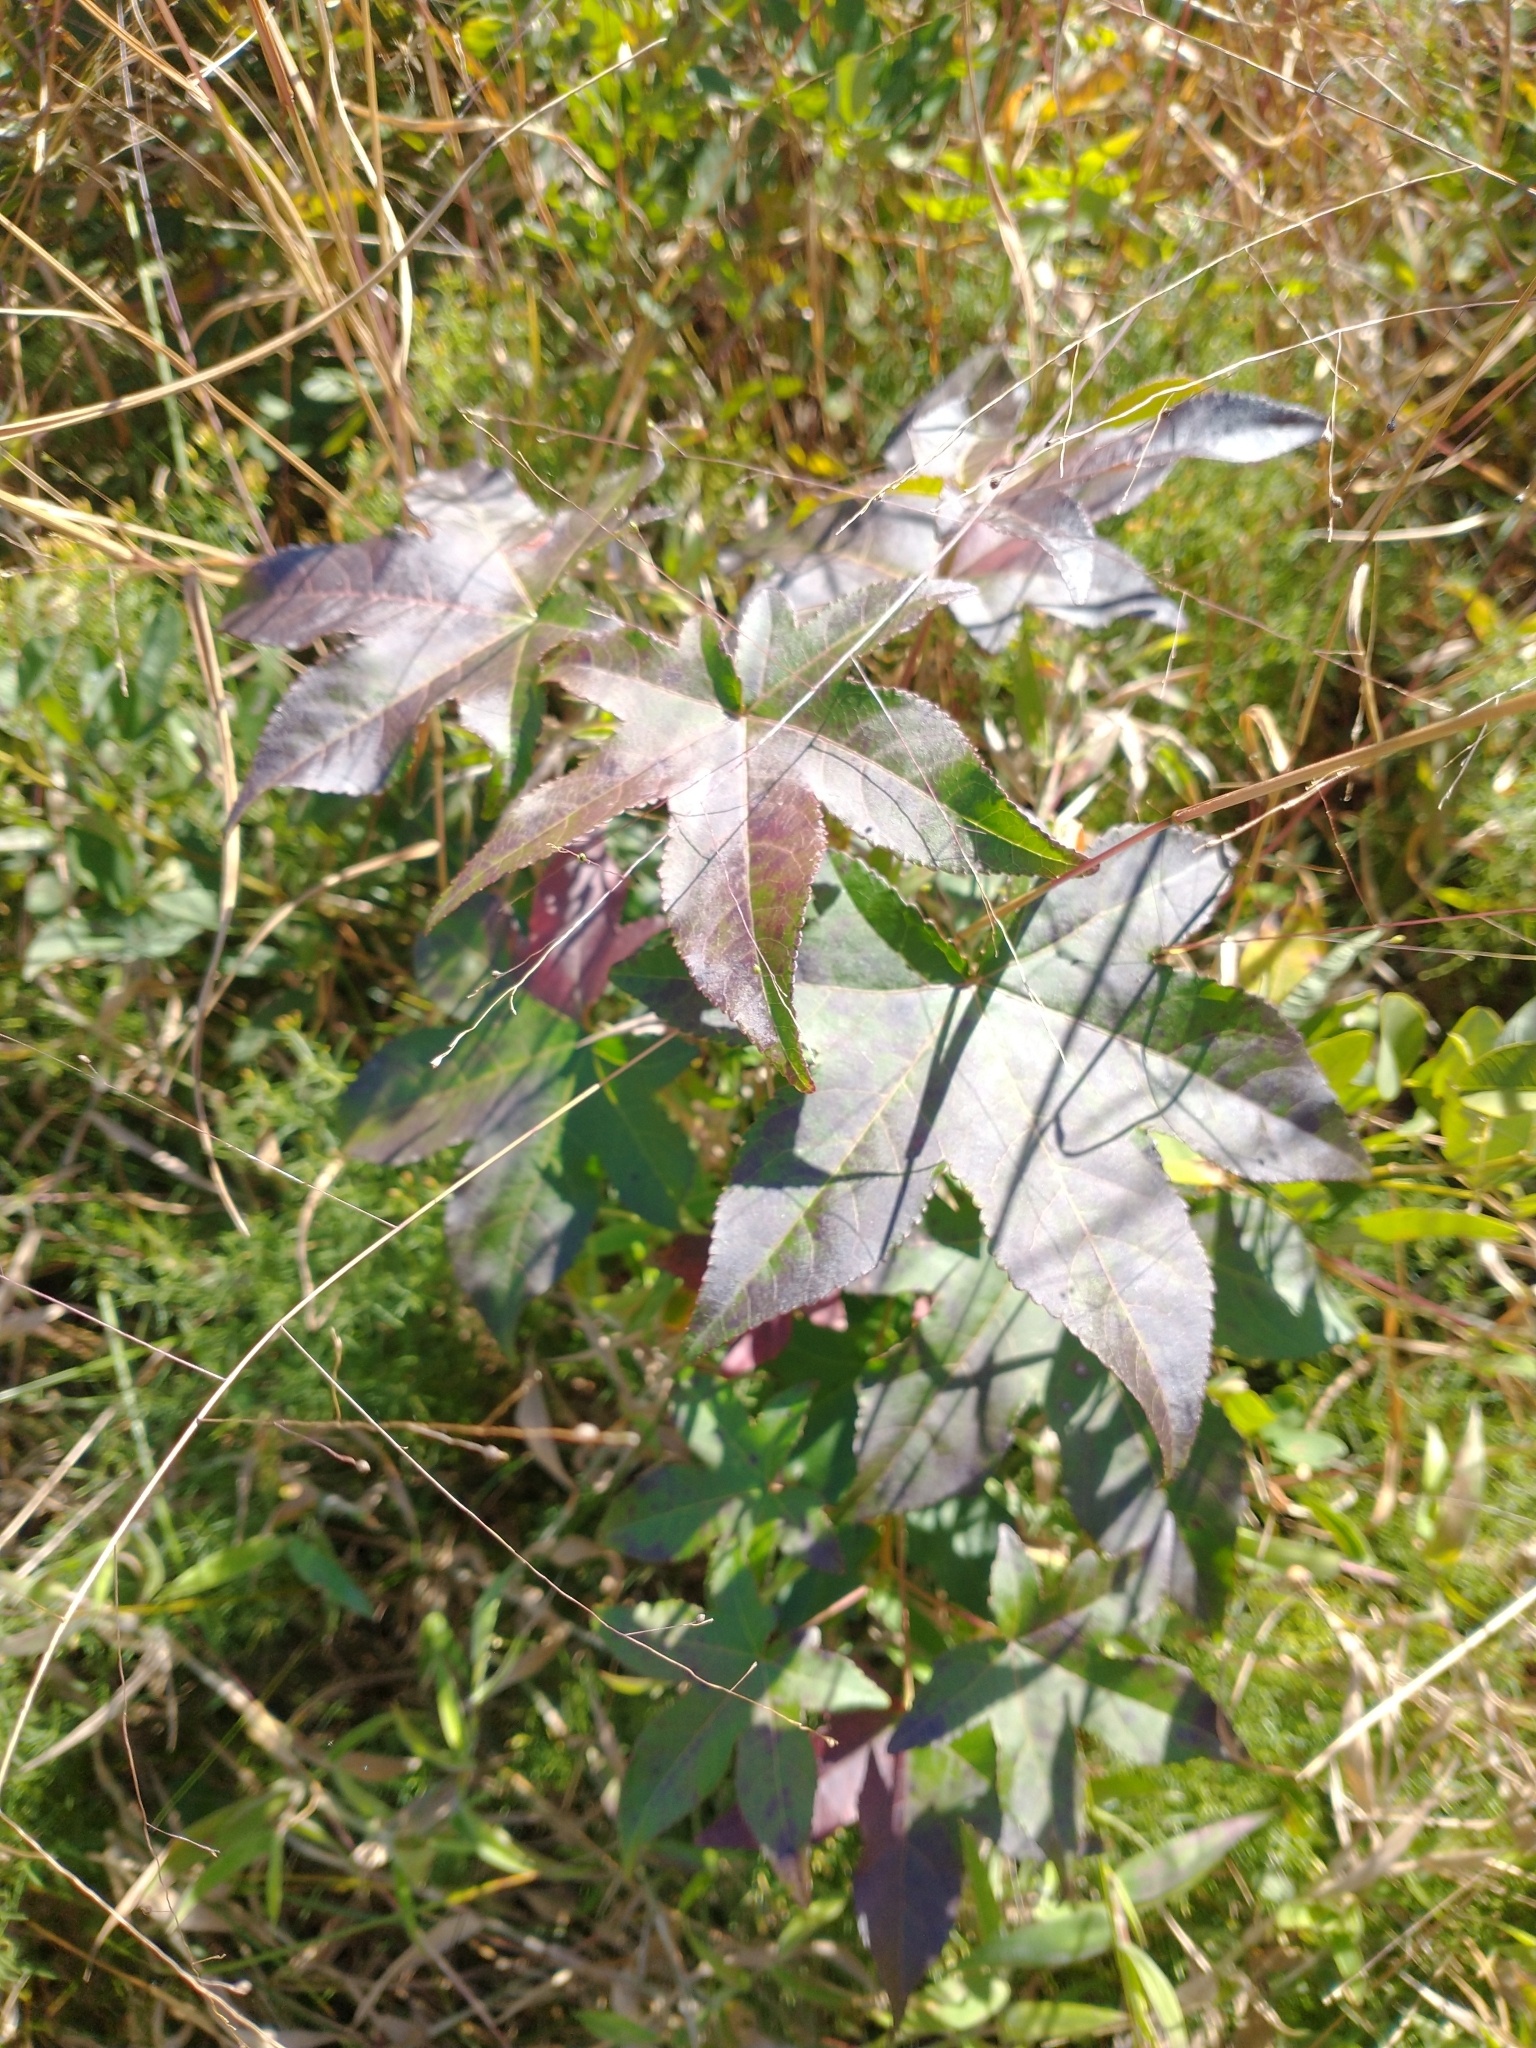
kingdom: Plantae
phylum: Tracheophyta
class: Magnoliopsida
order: Saxifragales
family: Altingiaceae
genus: Liquidambar
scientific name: Liquidambar styraciflua
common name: Sweet gum
